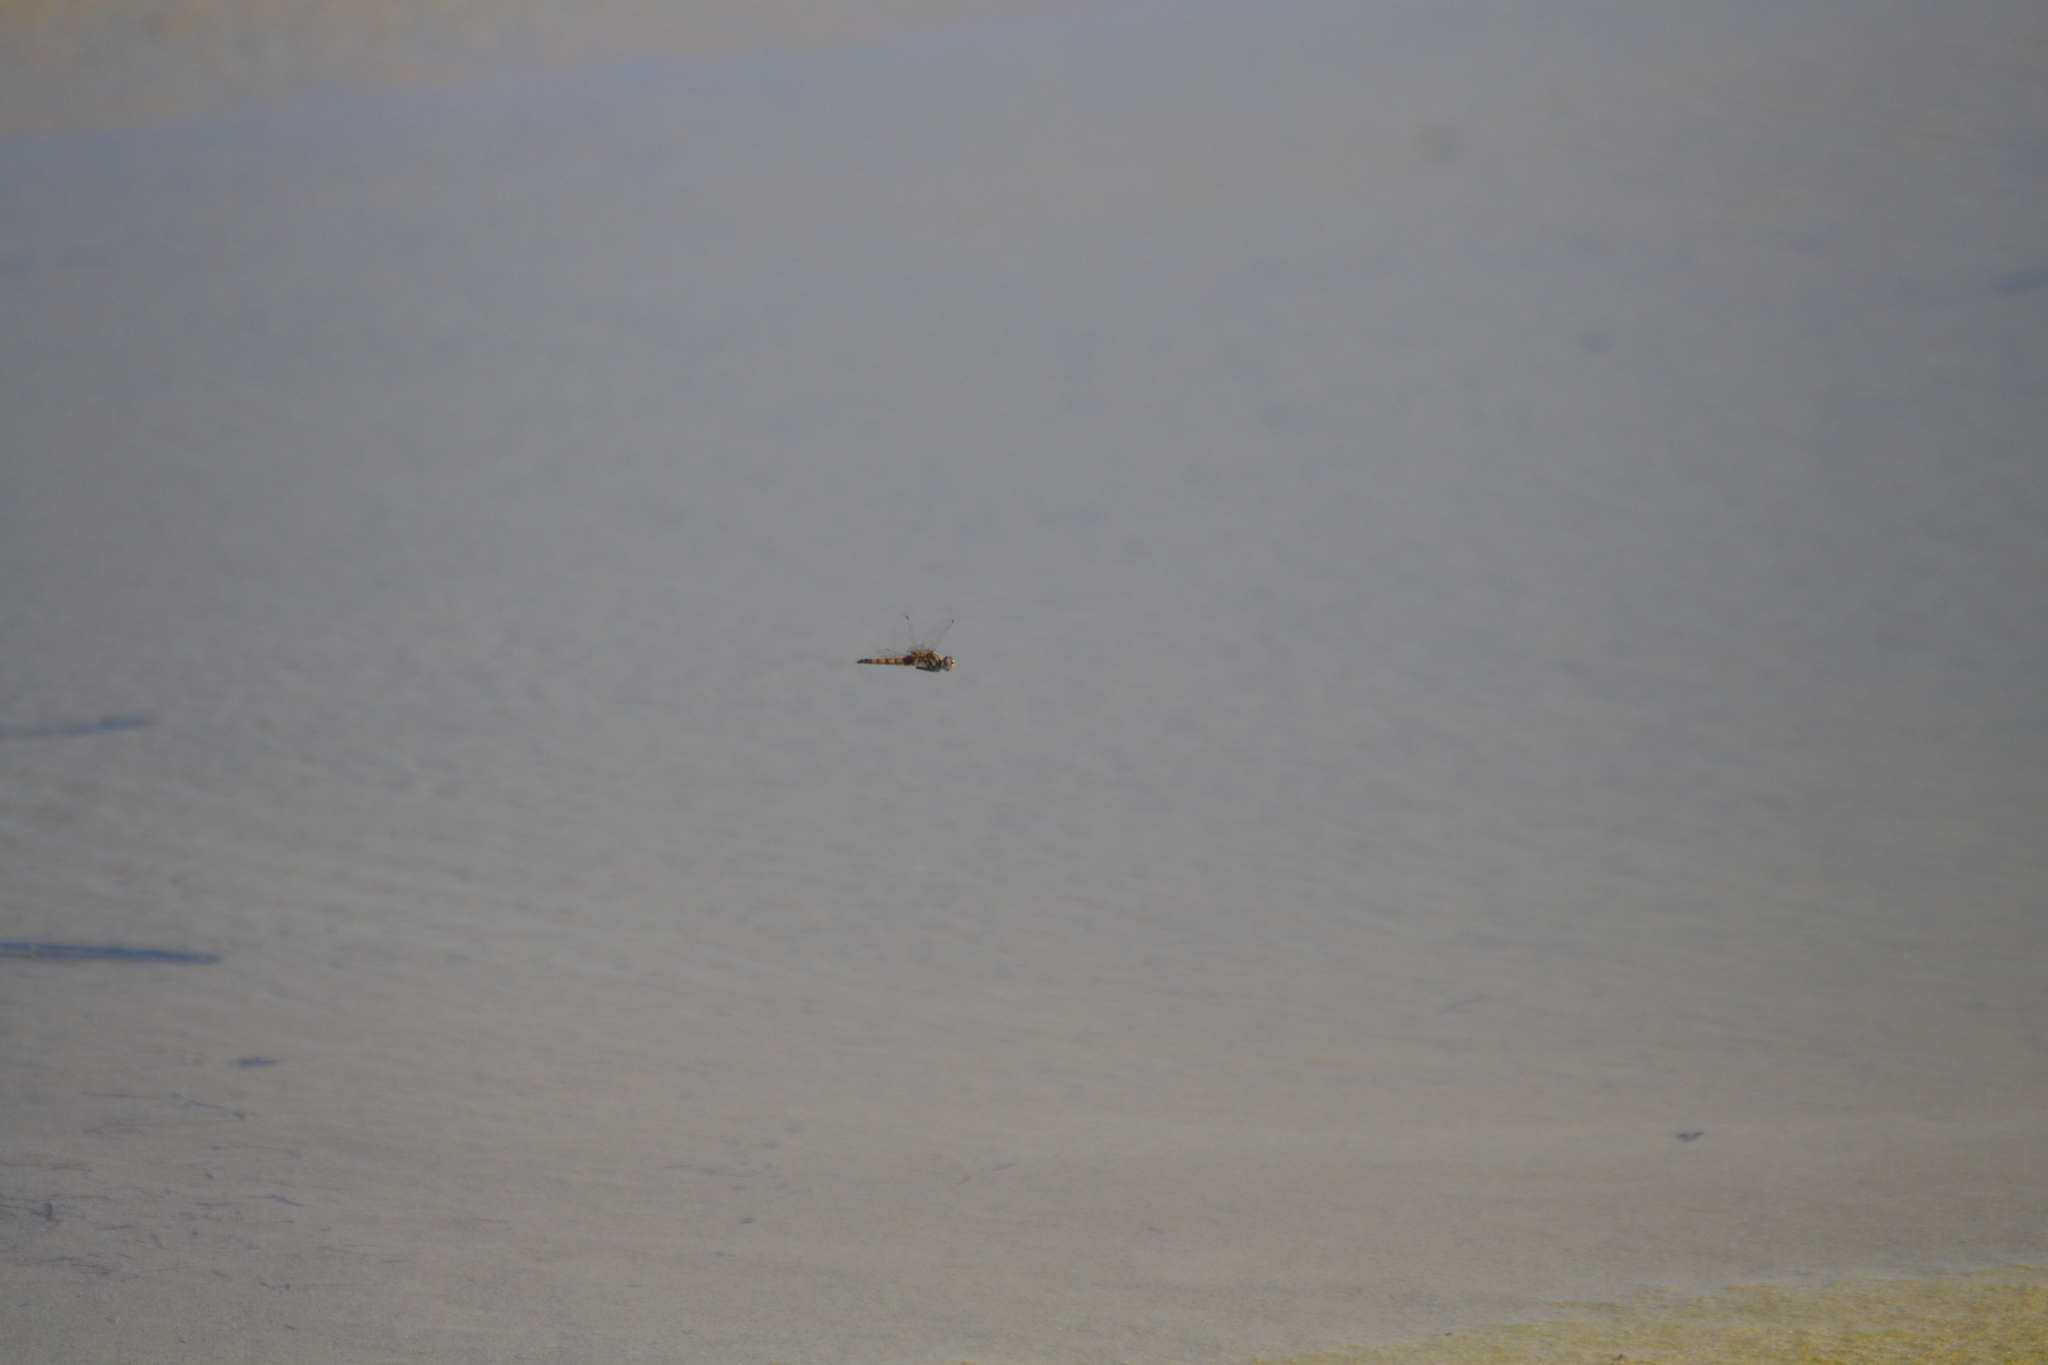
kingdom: Animalia
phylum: Arthropoda
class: Insecta
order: Odonata
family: Libellulidae
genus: Macrodiplax
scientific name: Macrodiplax balteata
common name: Marl pennant
